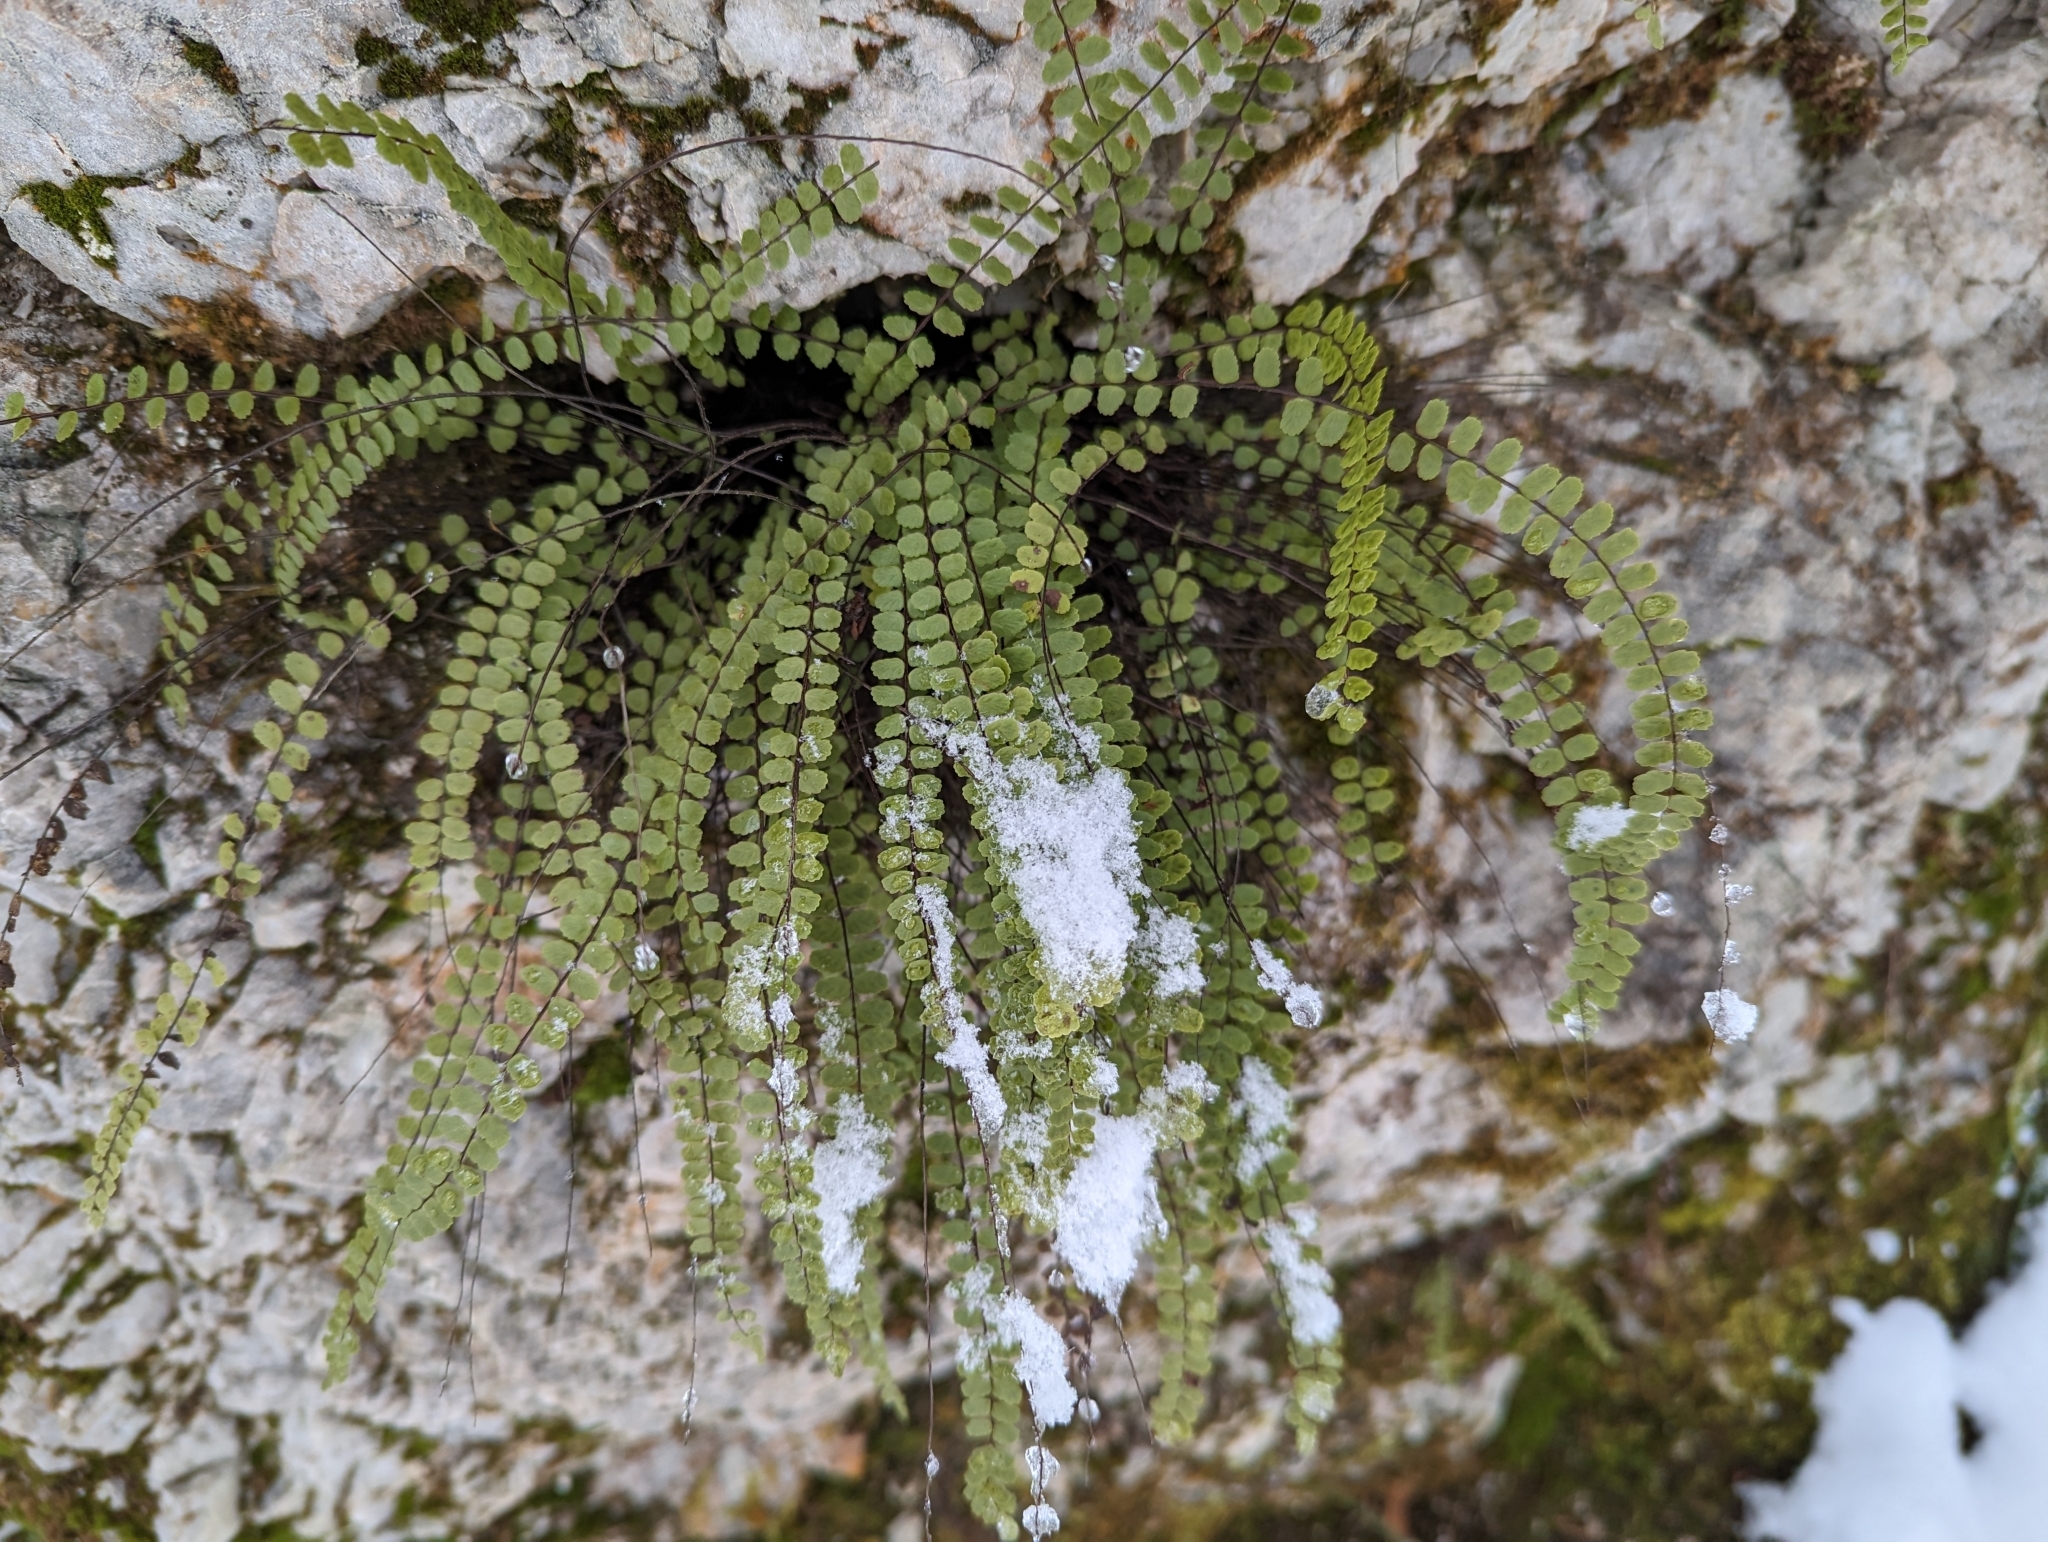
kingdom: Plantae
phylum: Tracheophyta
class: Polypodiopsida
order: Polypodiales
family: Aspleniaceae
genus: Asplenium
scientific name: Asplenium trichomanes
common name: Maidenhair spleenwort
